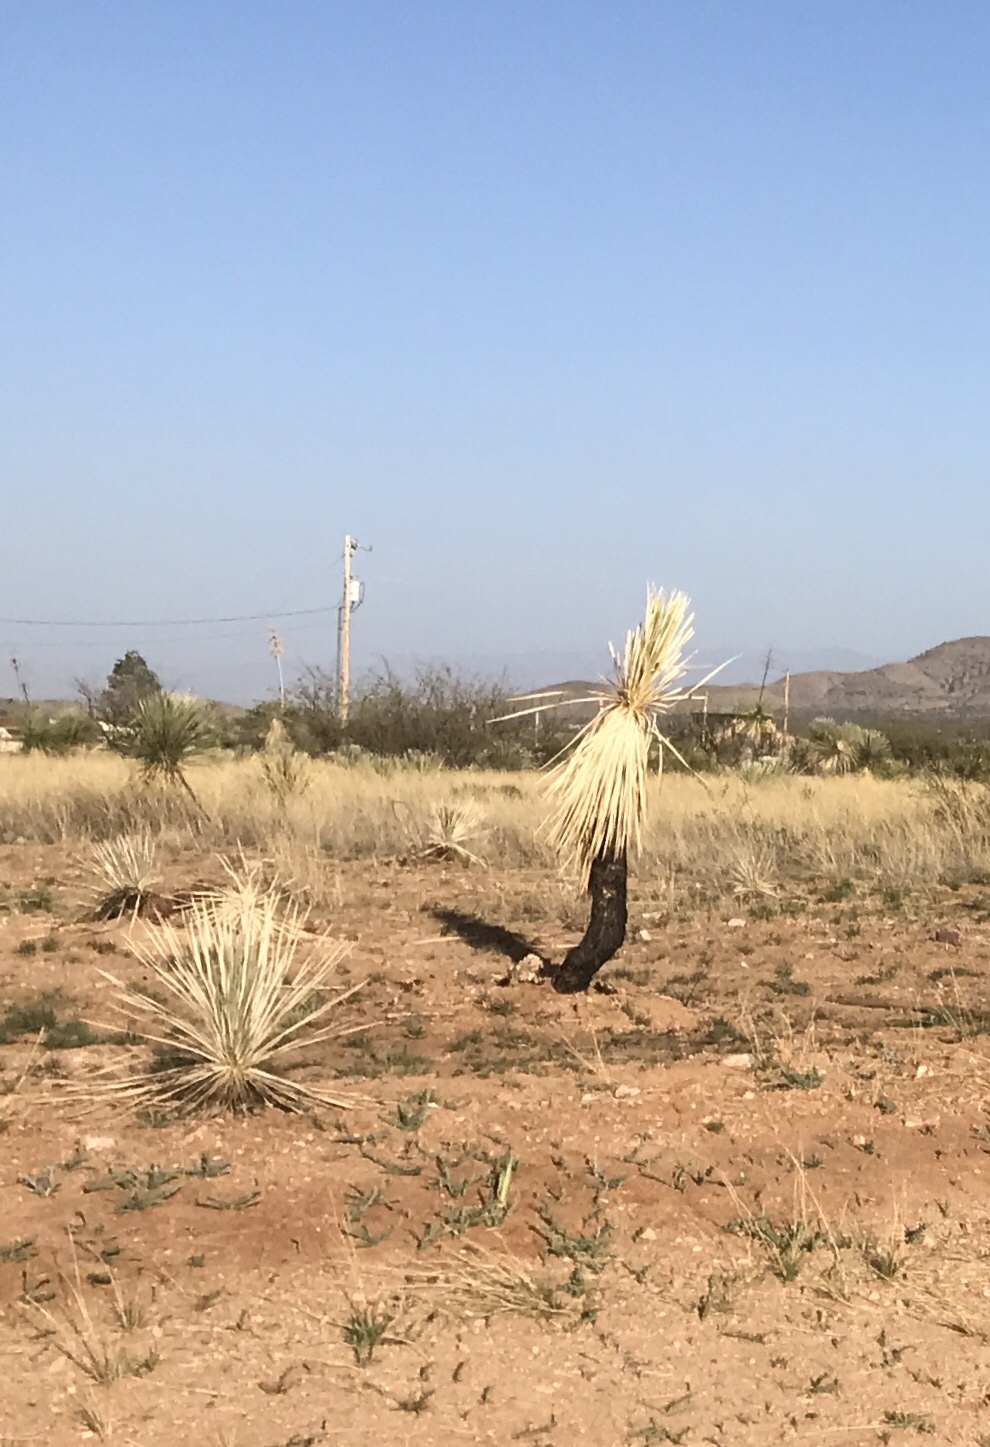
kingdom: Plantae
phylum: Tracheophyta
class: Liliopsida
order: Asparagales
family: Asparagaceae
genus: Yucca
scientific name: Yucca elata
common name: Palmella
